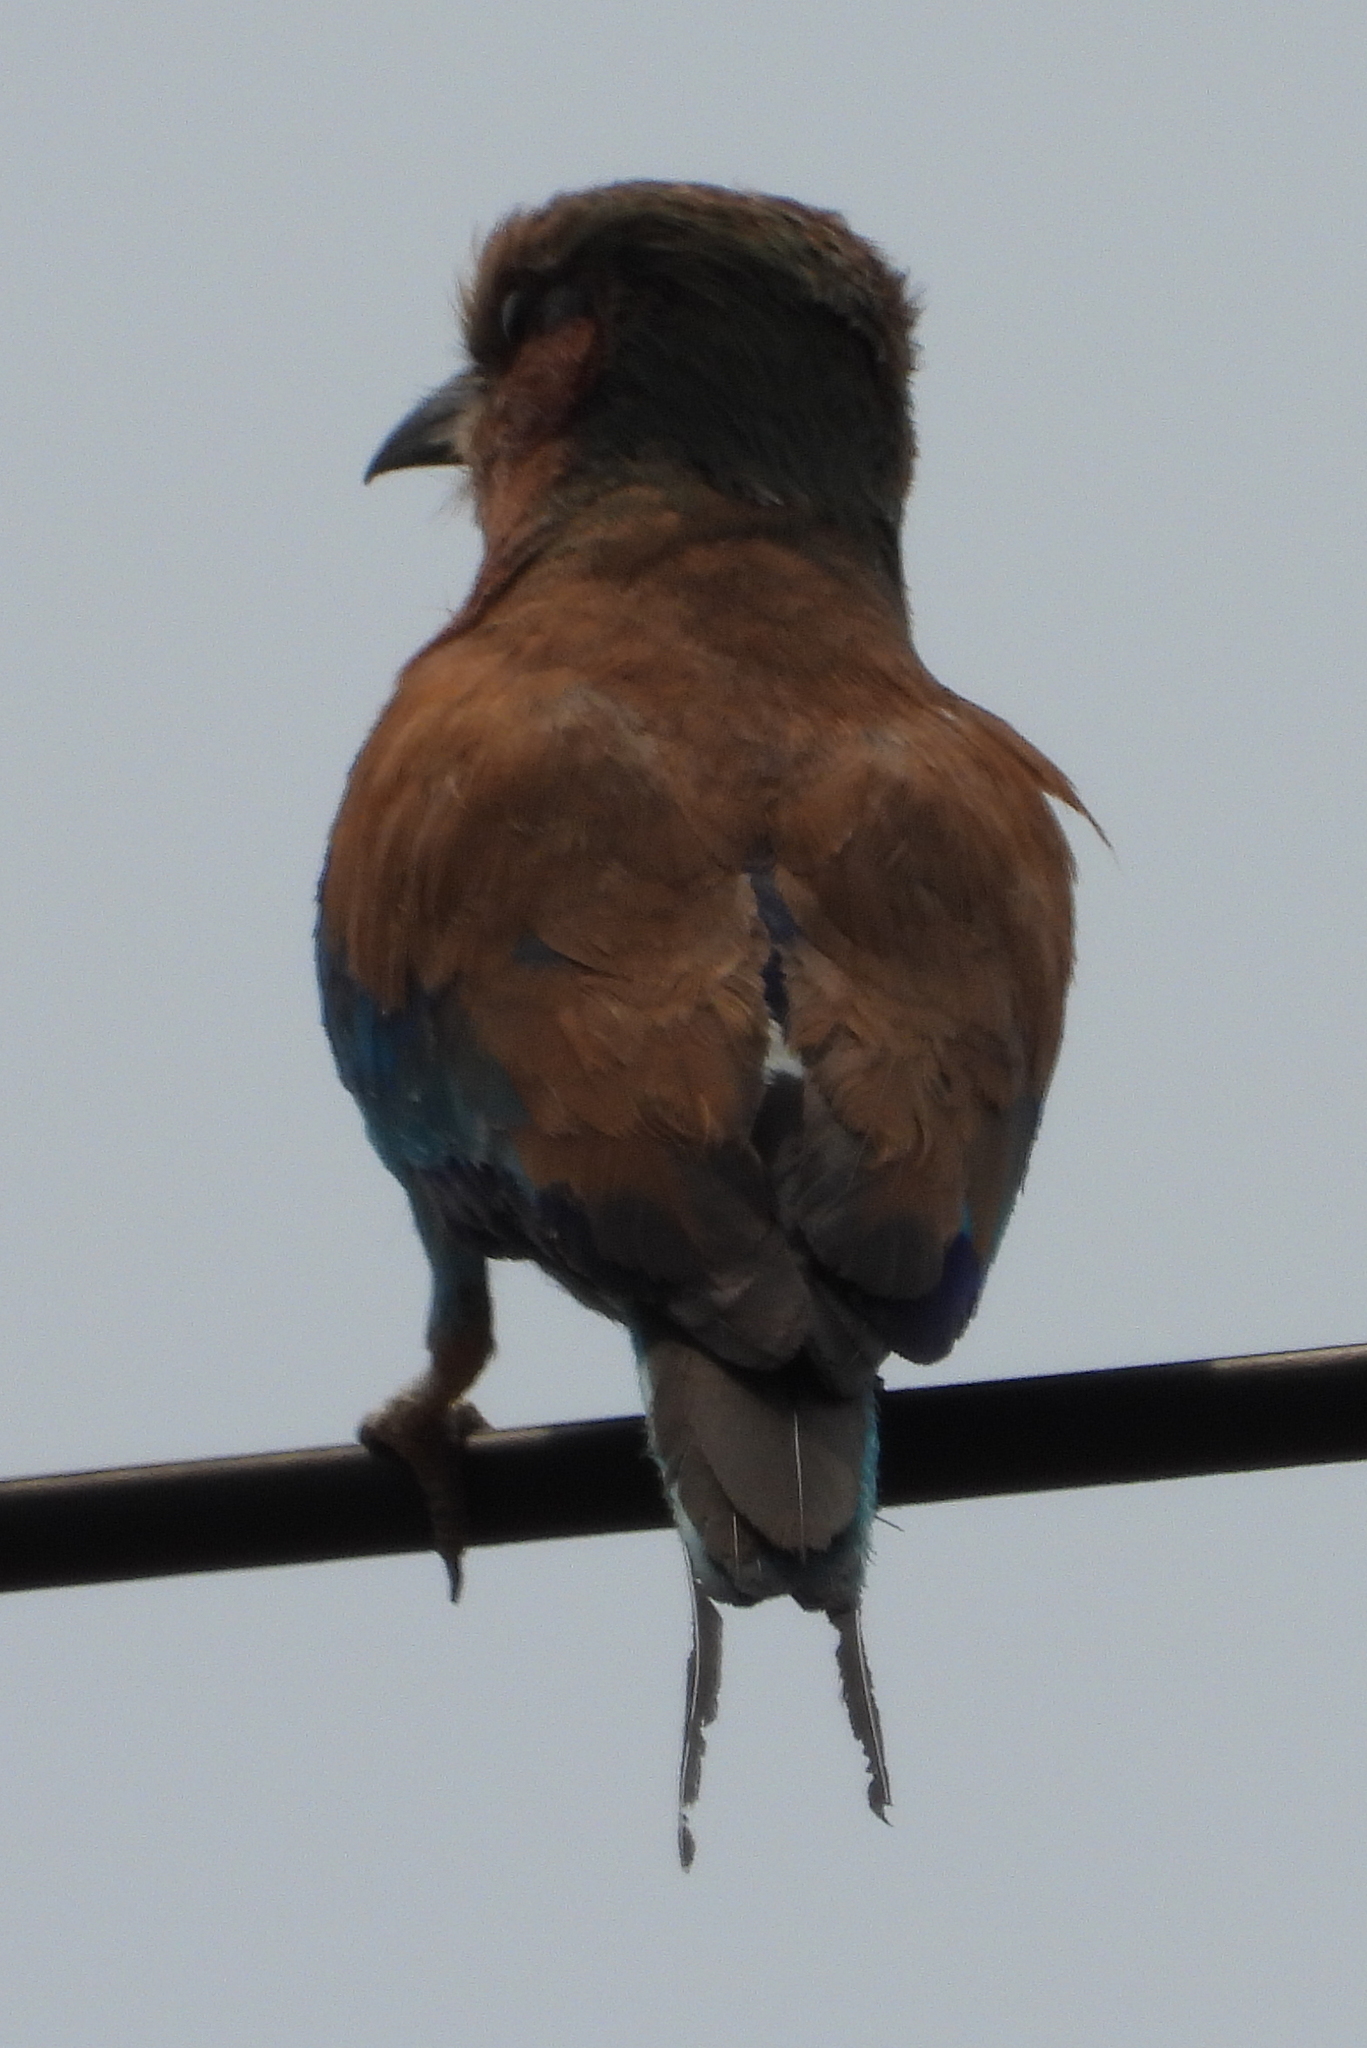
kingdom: Animalia
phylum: Chordata
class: Aves
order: Coraciiformes
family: Coraciidae
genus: Coracias
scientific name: Coracias caudatus
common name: Lilac-breasted roller
